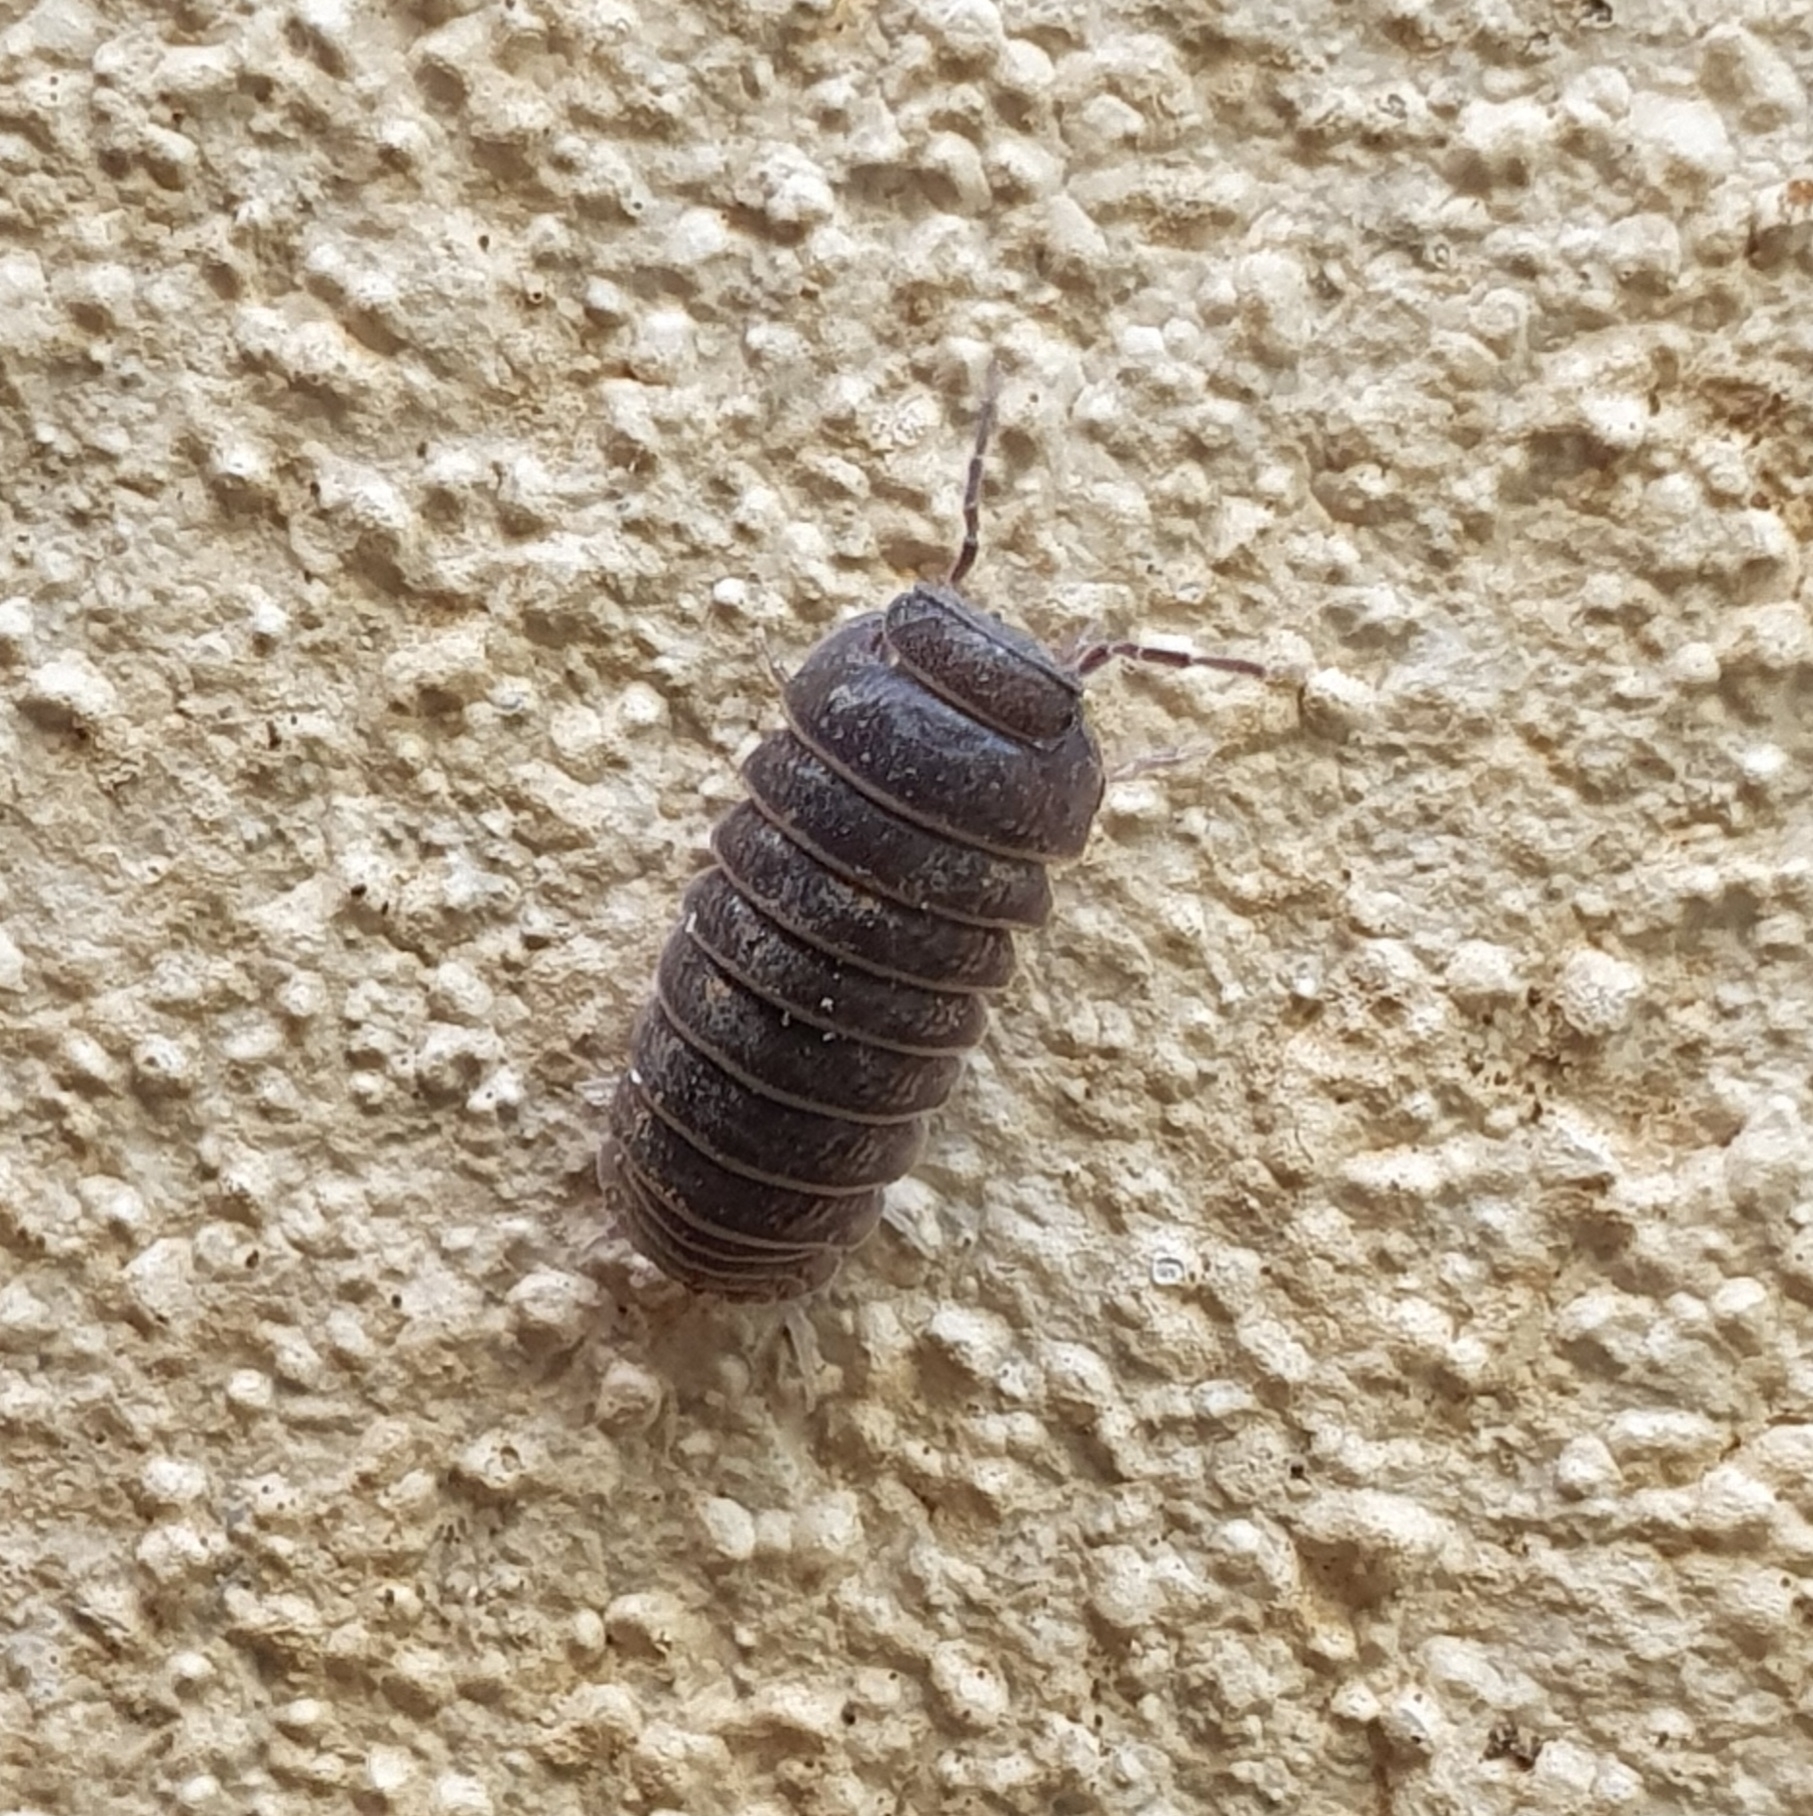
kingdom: Animalia
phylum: Arthropoda
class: Malacostraca
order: Isopoda
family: Armadillidae
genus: Armadillo
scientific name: Armadillo officinalis
